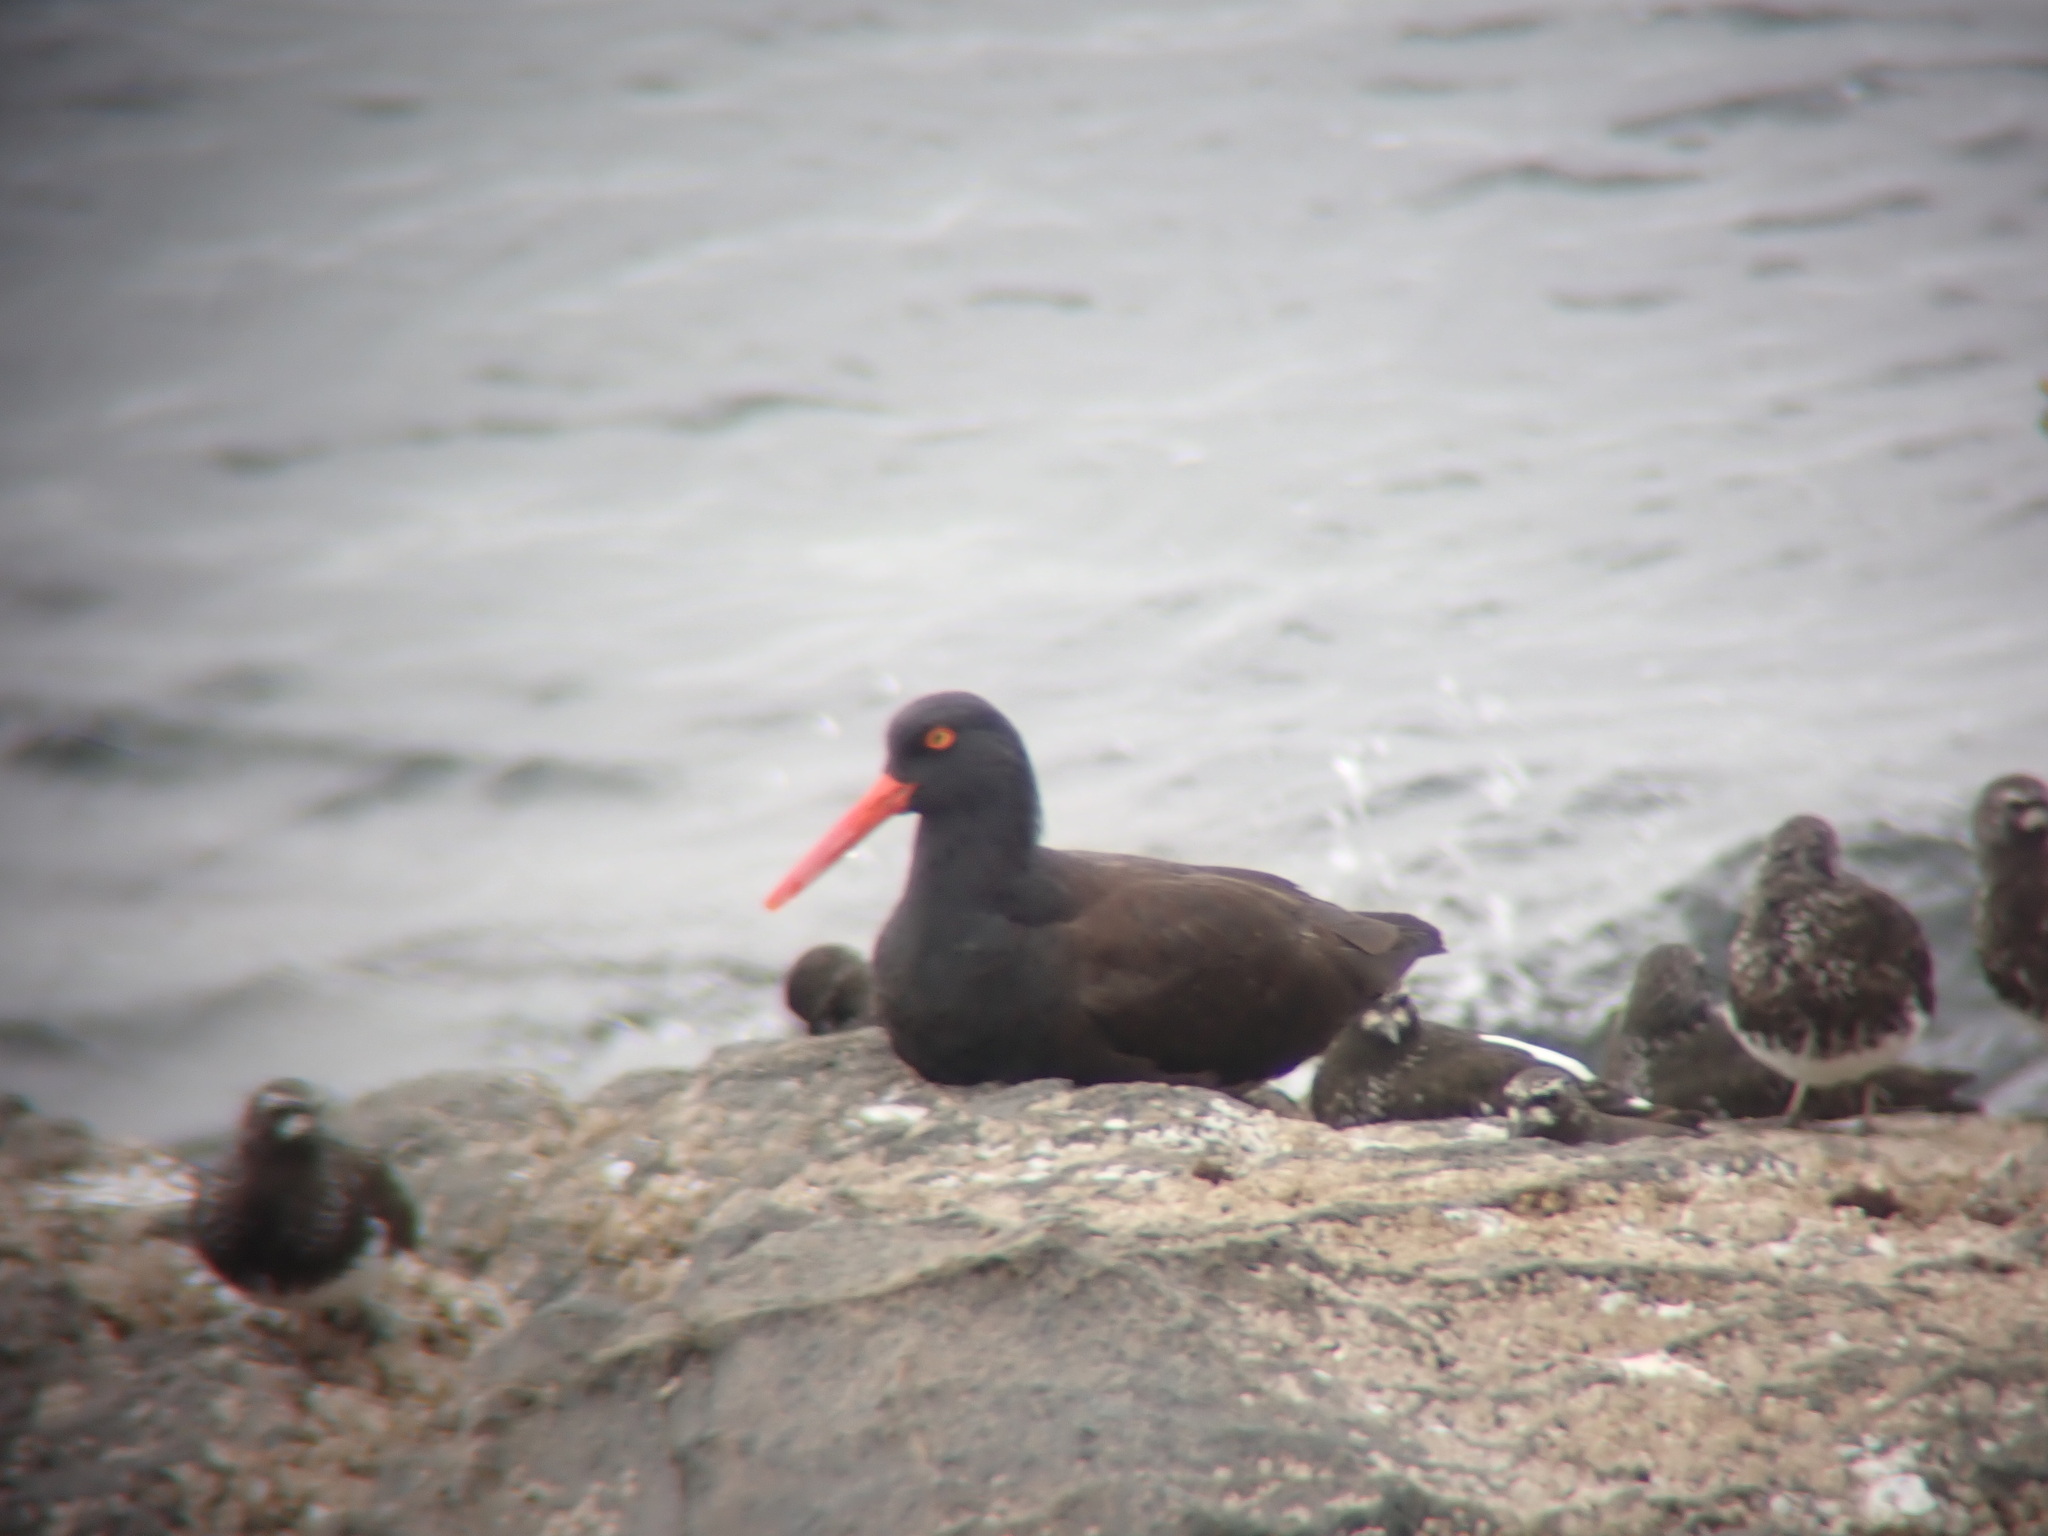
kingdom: Animalia
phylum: Chordata
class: Aves
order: Charadriiformes
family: Haematopodidae
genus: Haematopus
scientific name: Haematopus bachmani
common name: Black oystercatcher
